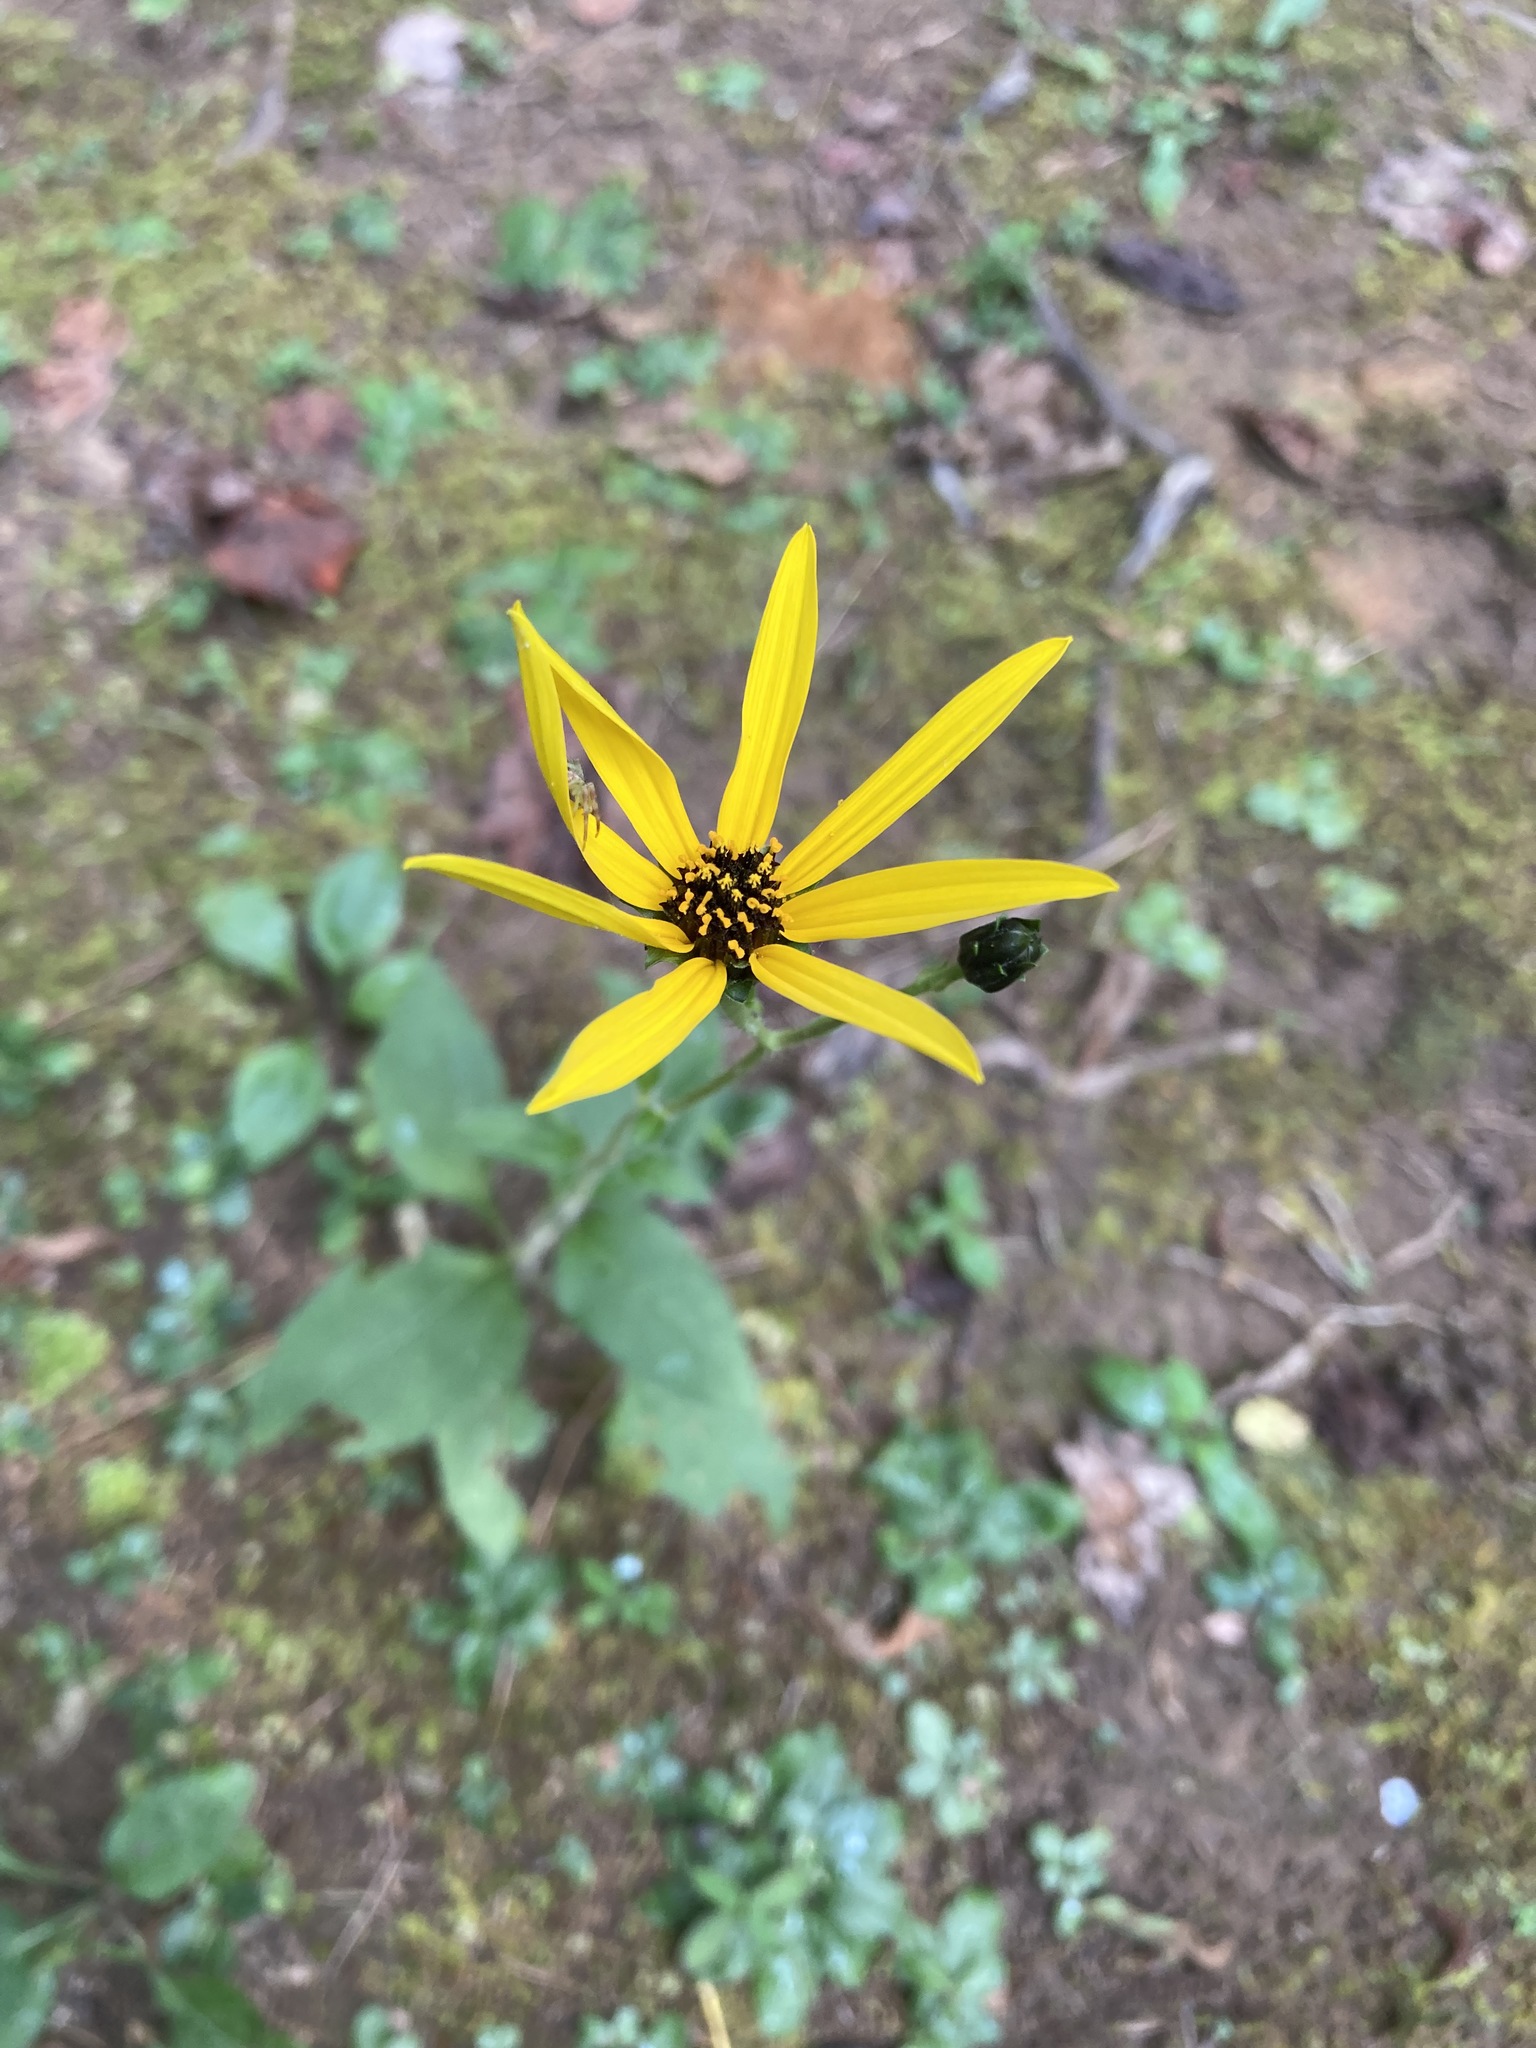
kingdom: Plantae
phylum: Tracheophyta
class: Magnoliopsida
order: Asterales
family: Asteraceae
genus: Helianthus
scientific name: Helianthus atrorubens
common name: Dark-eyed sunflower
